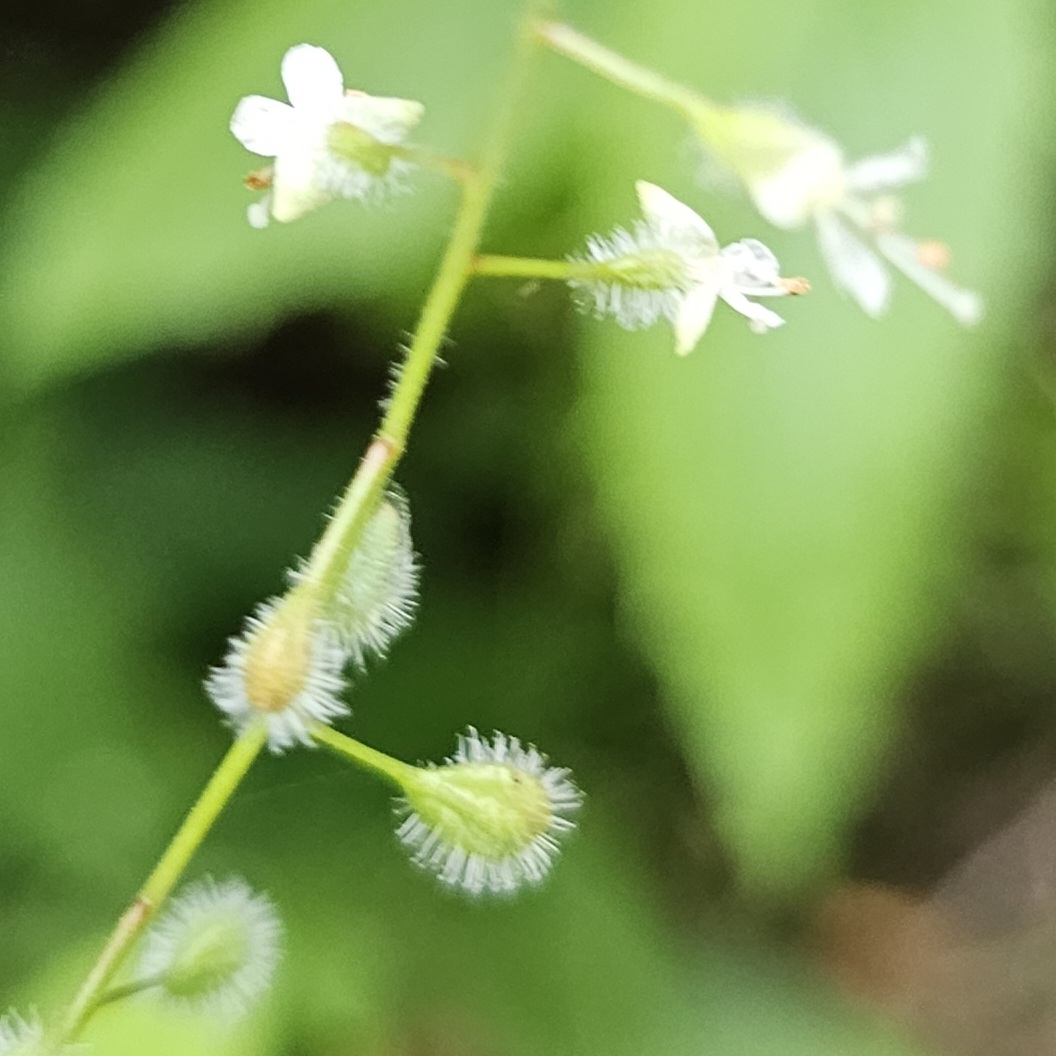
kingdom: Plantae
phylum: Tracheophyta
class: Magnoliopsida
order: Myrtales
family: Onagraceae
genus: Circaea
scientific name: Circaea canadensis
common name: Broad-leaved enchanter's nightshade
